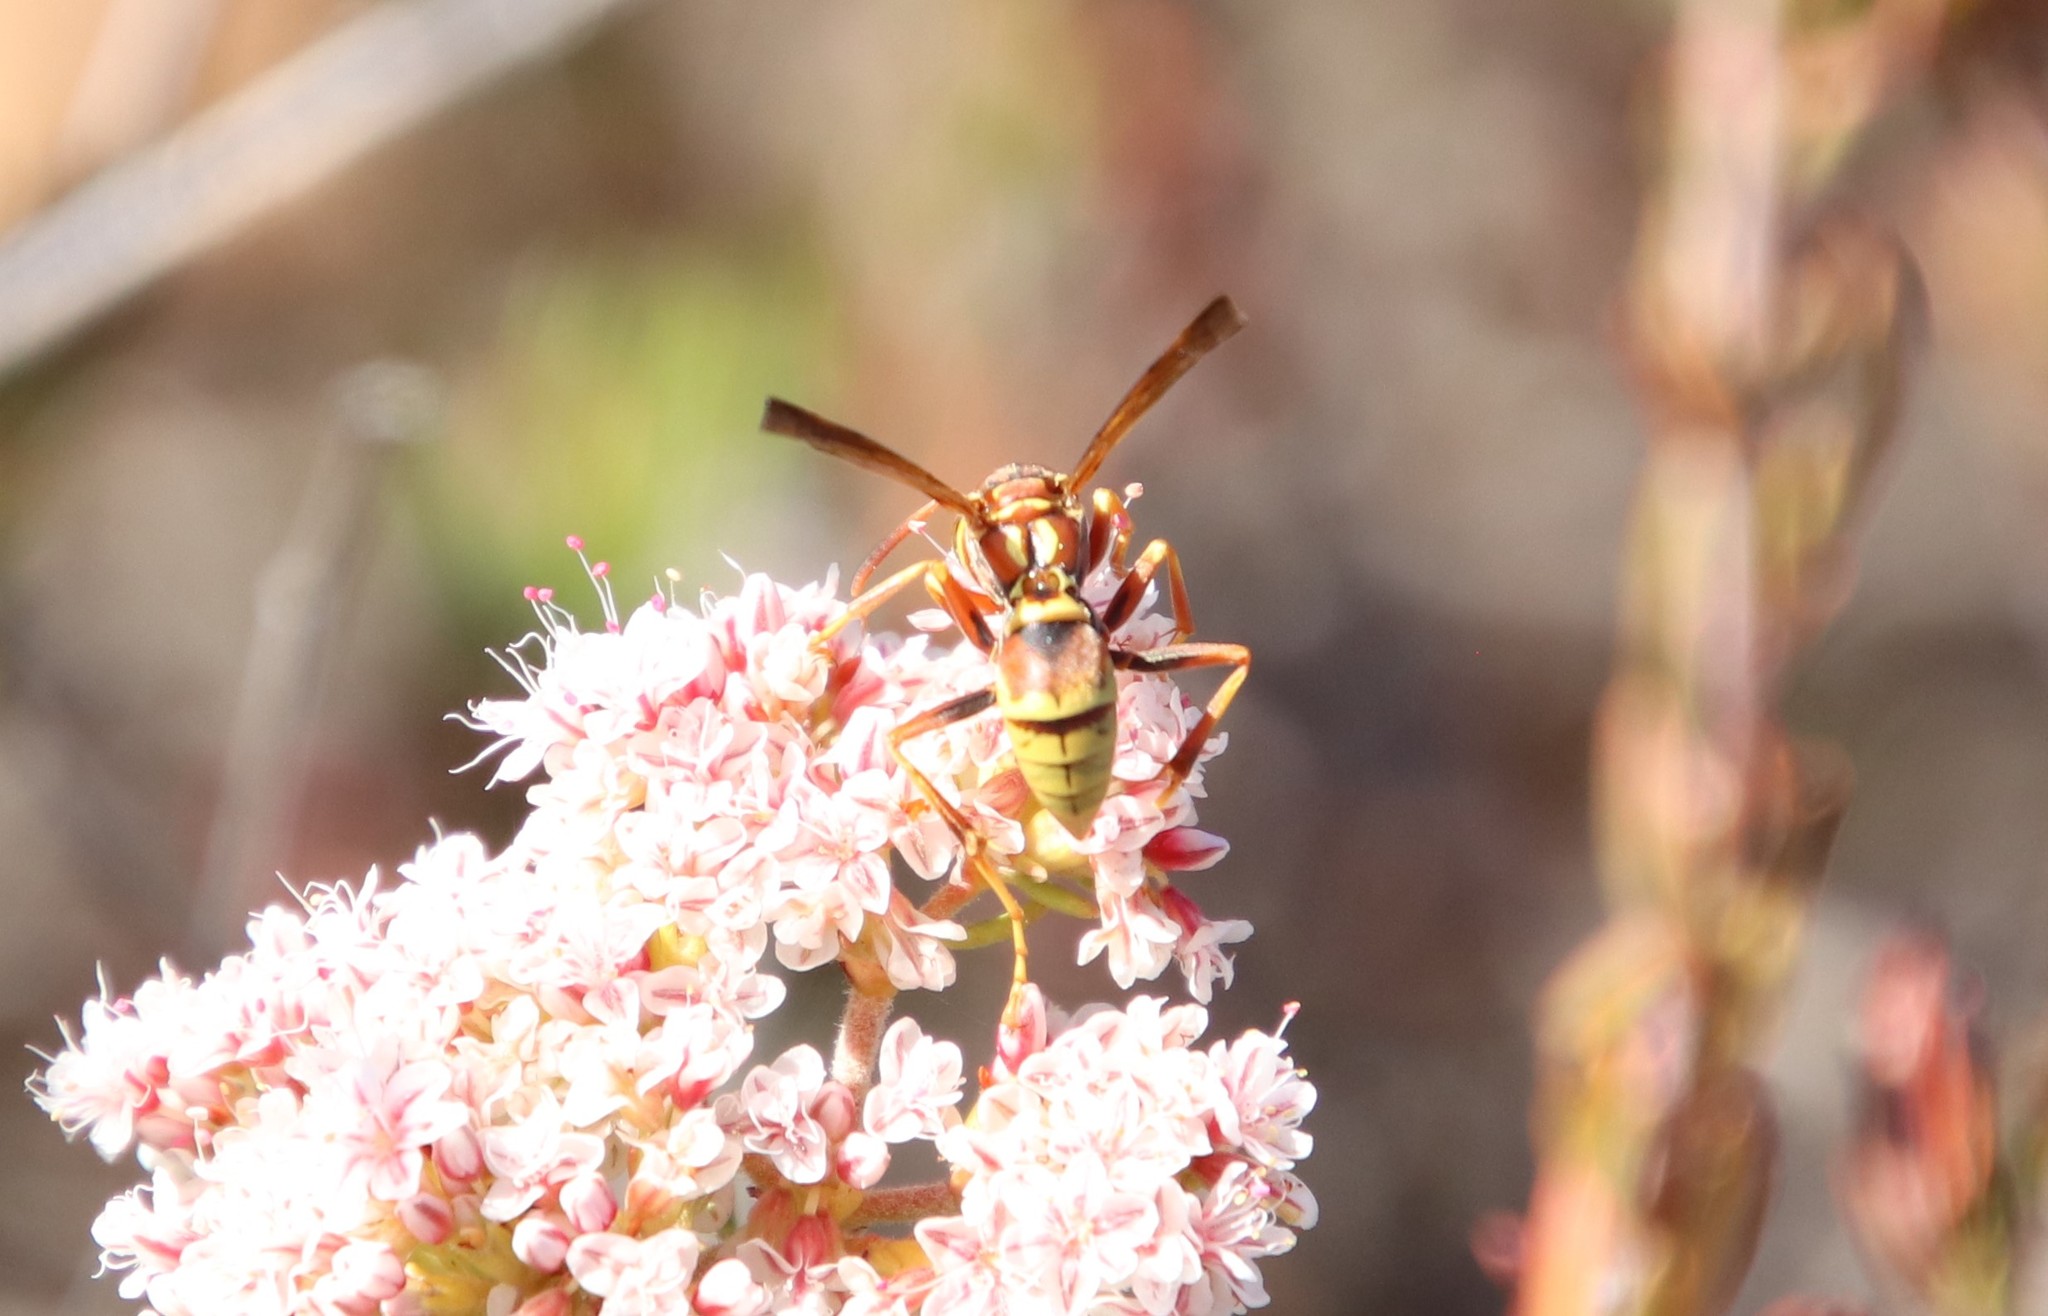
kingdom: Animalia
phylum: Arthropoda
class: Insecta
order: Hymenoptera
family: Eumenidae
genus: Polistes
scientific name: Polistes dorsalis
